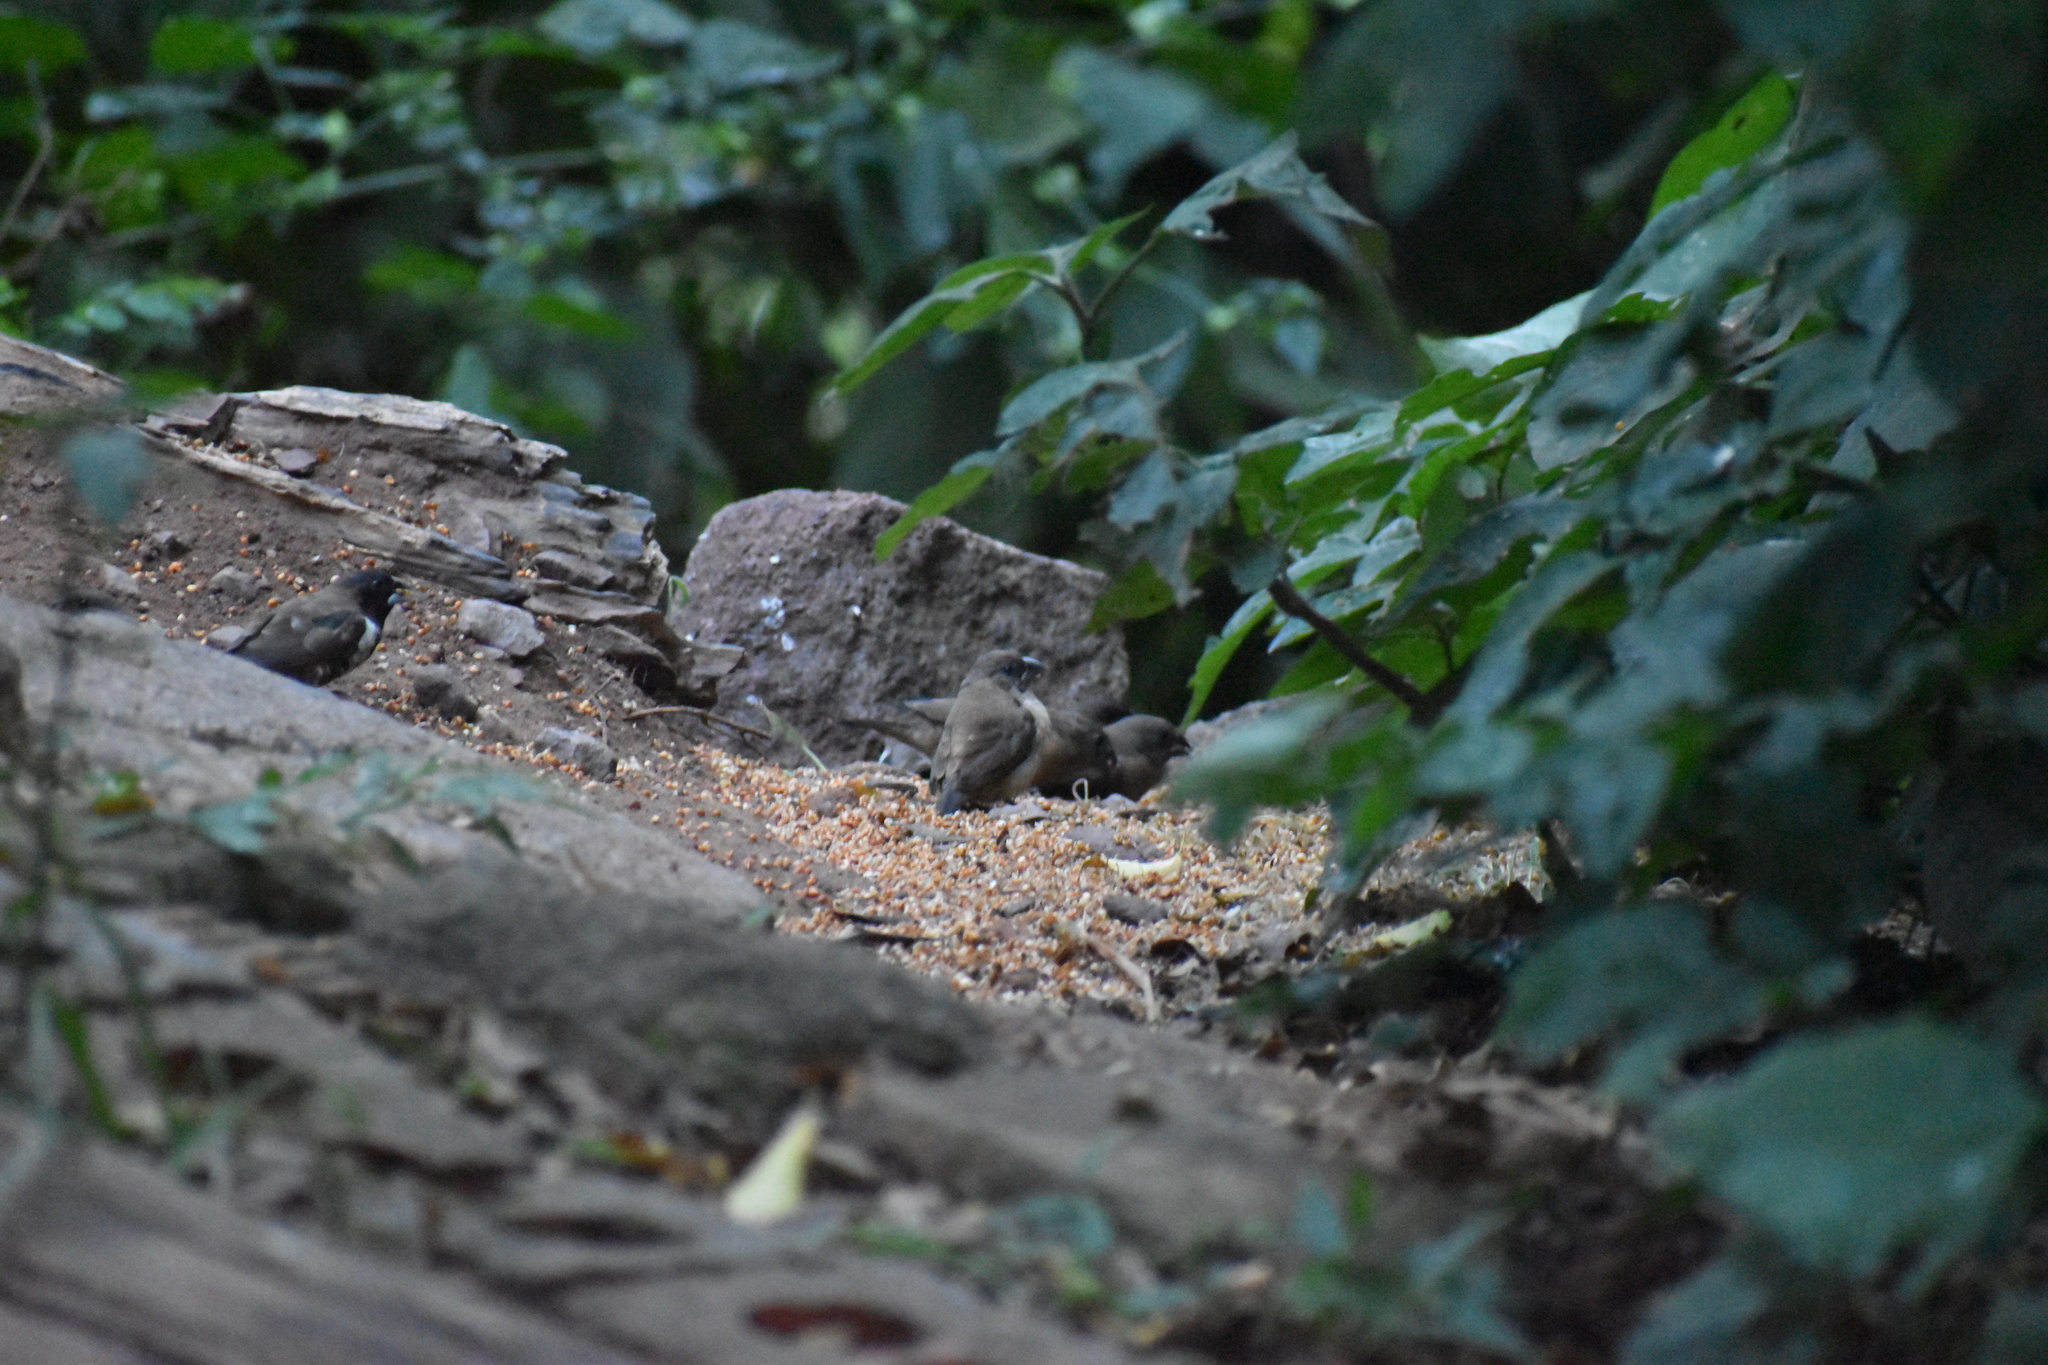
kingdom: Animalia
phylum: Chordata
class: Aves
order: Passeriformes
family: Estrildidae
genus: Lonchura
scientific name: Lonchura cucullata
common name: Bronze mannikin
